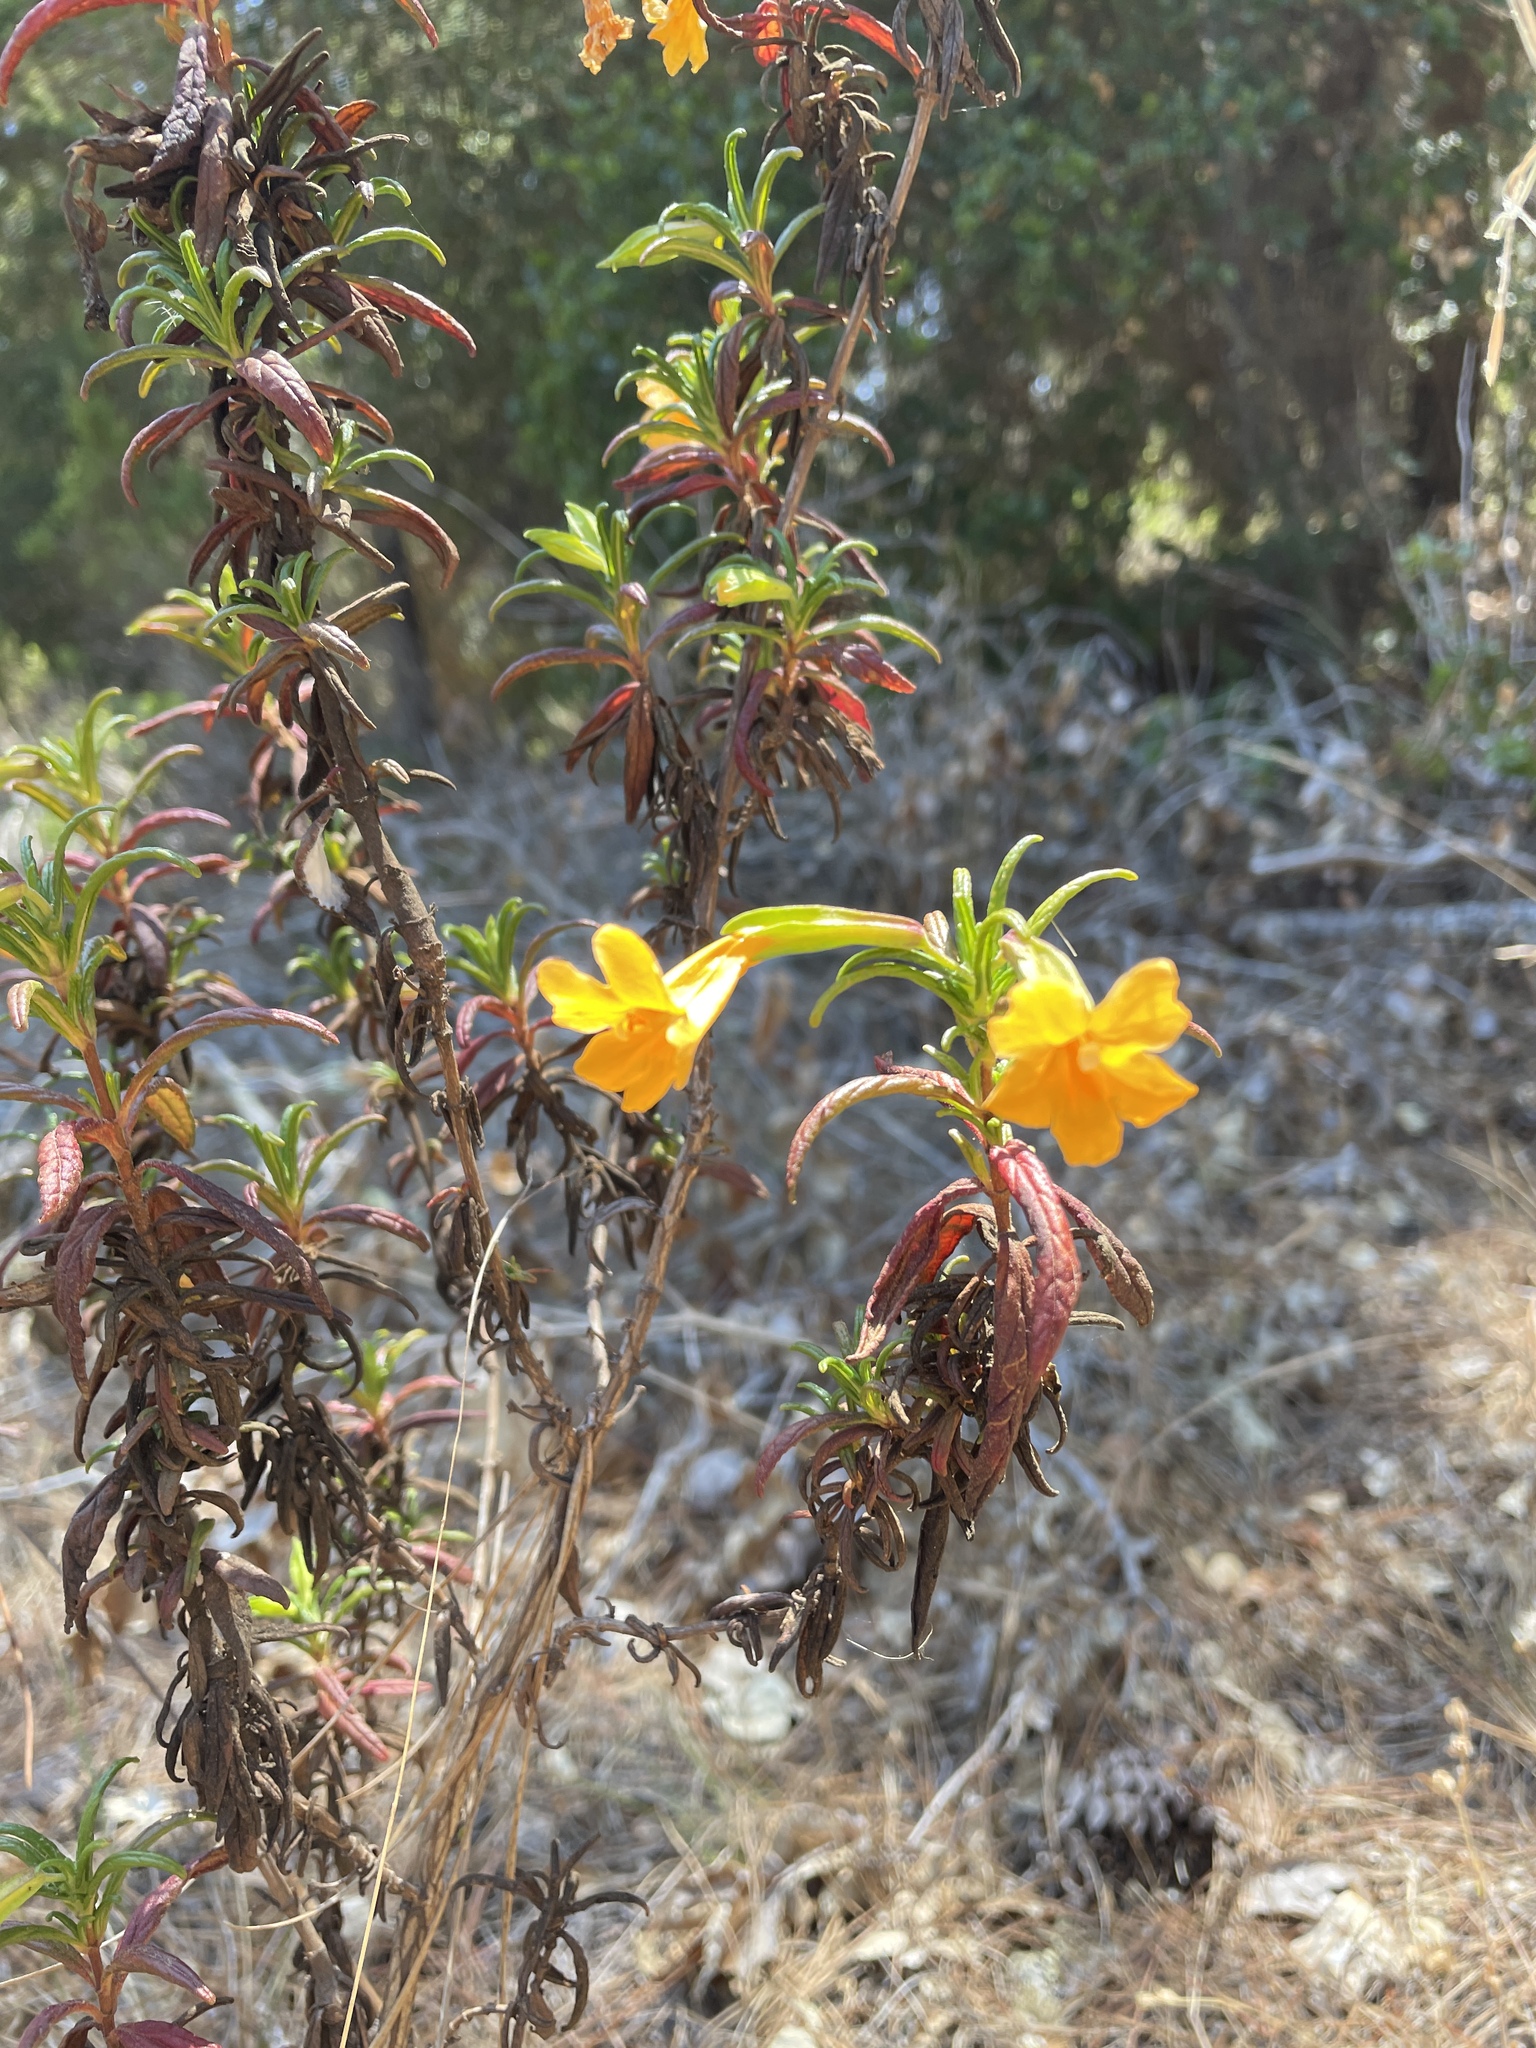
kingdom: Plantae
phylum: Tracheophyta
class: Magnoliopsida
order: Lamiales
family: Phrymaceae
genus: Diplacus
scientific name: Diplacus aurantiacus
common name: Bush monkey-flower
